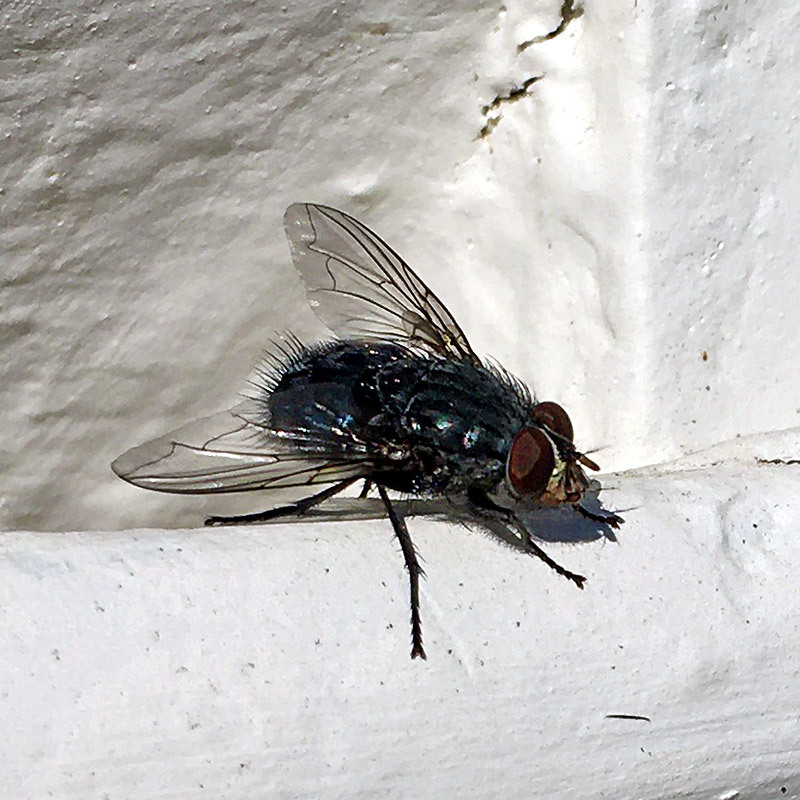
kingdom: Animalia
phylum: Arthropoda
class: Insecta
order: Diptera
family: Calliphoridae
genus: Calliphora
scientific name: Calliphora vicina
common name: Common blow flie
